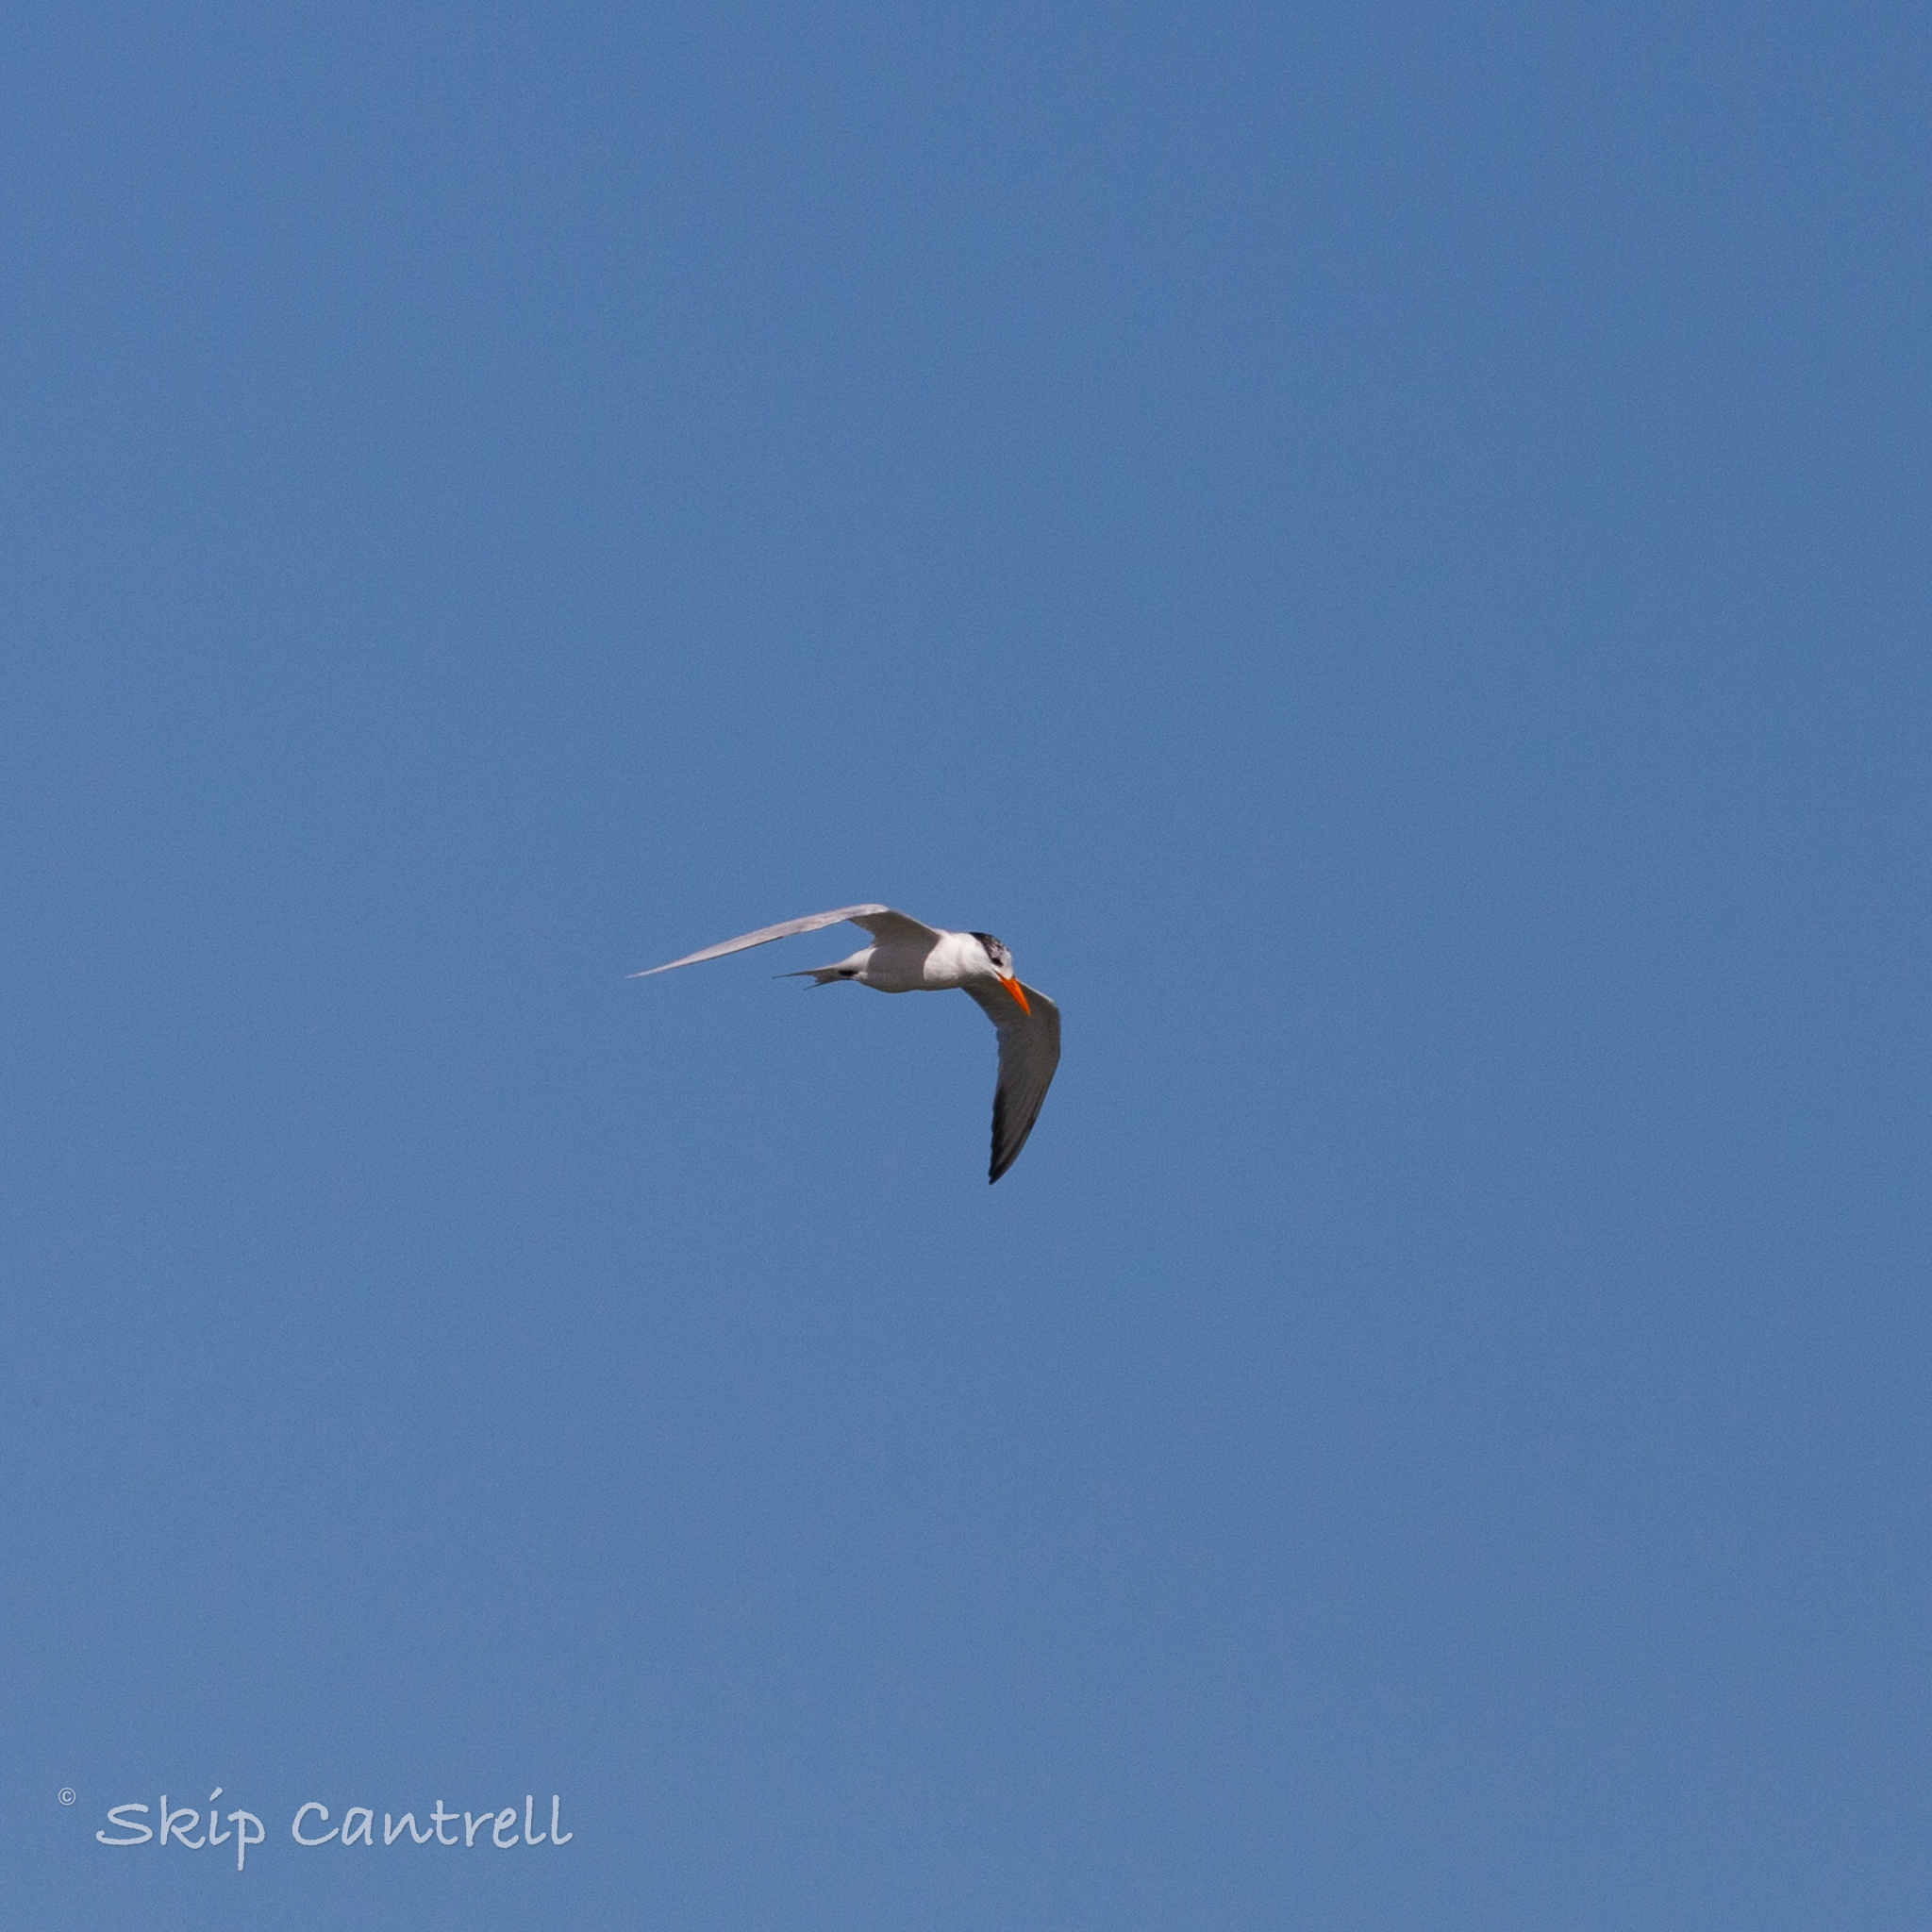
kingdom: Animalia
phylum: Chordata
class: Aves
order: Charadriiformes
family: Laridae
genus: Hydroprogne
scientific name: Hydroprogne caspia
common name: Caspian tern
